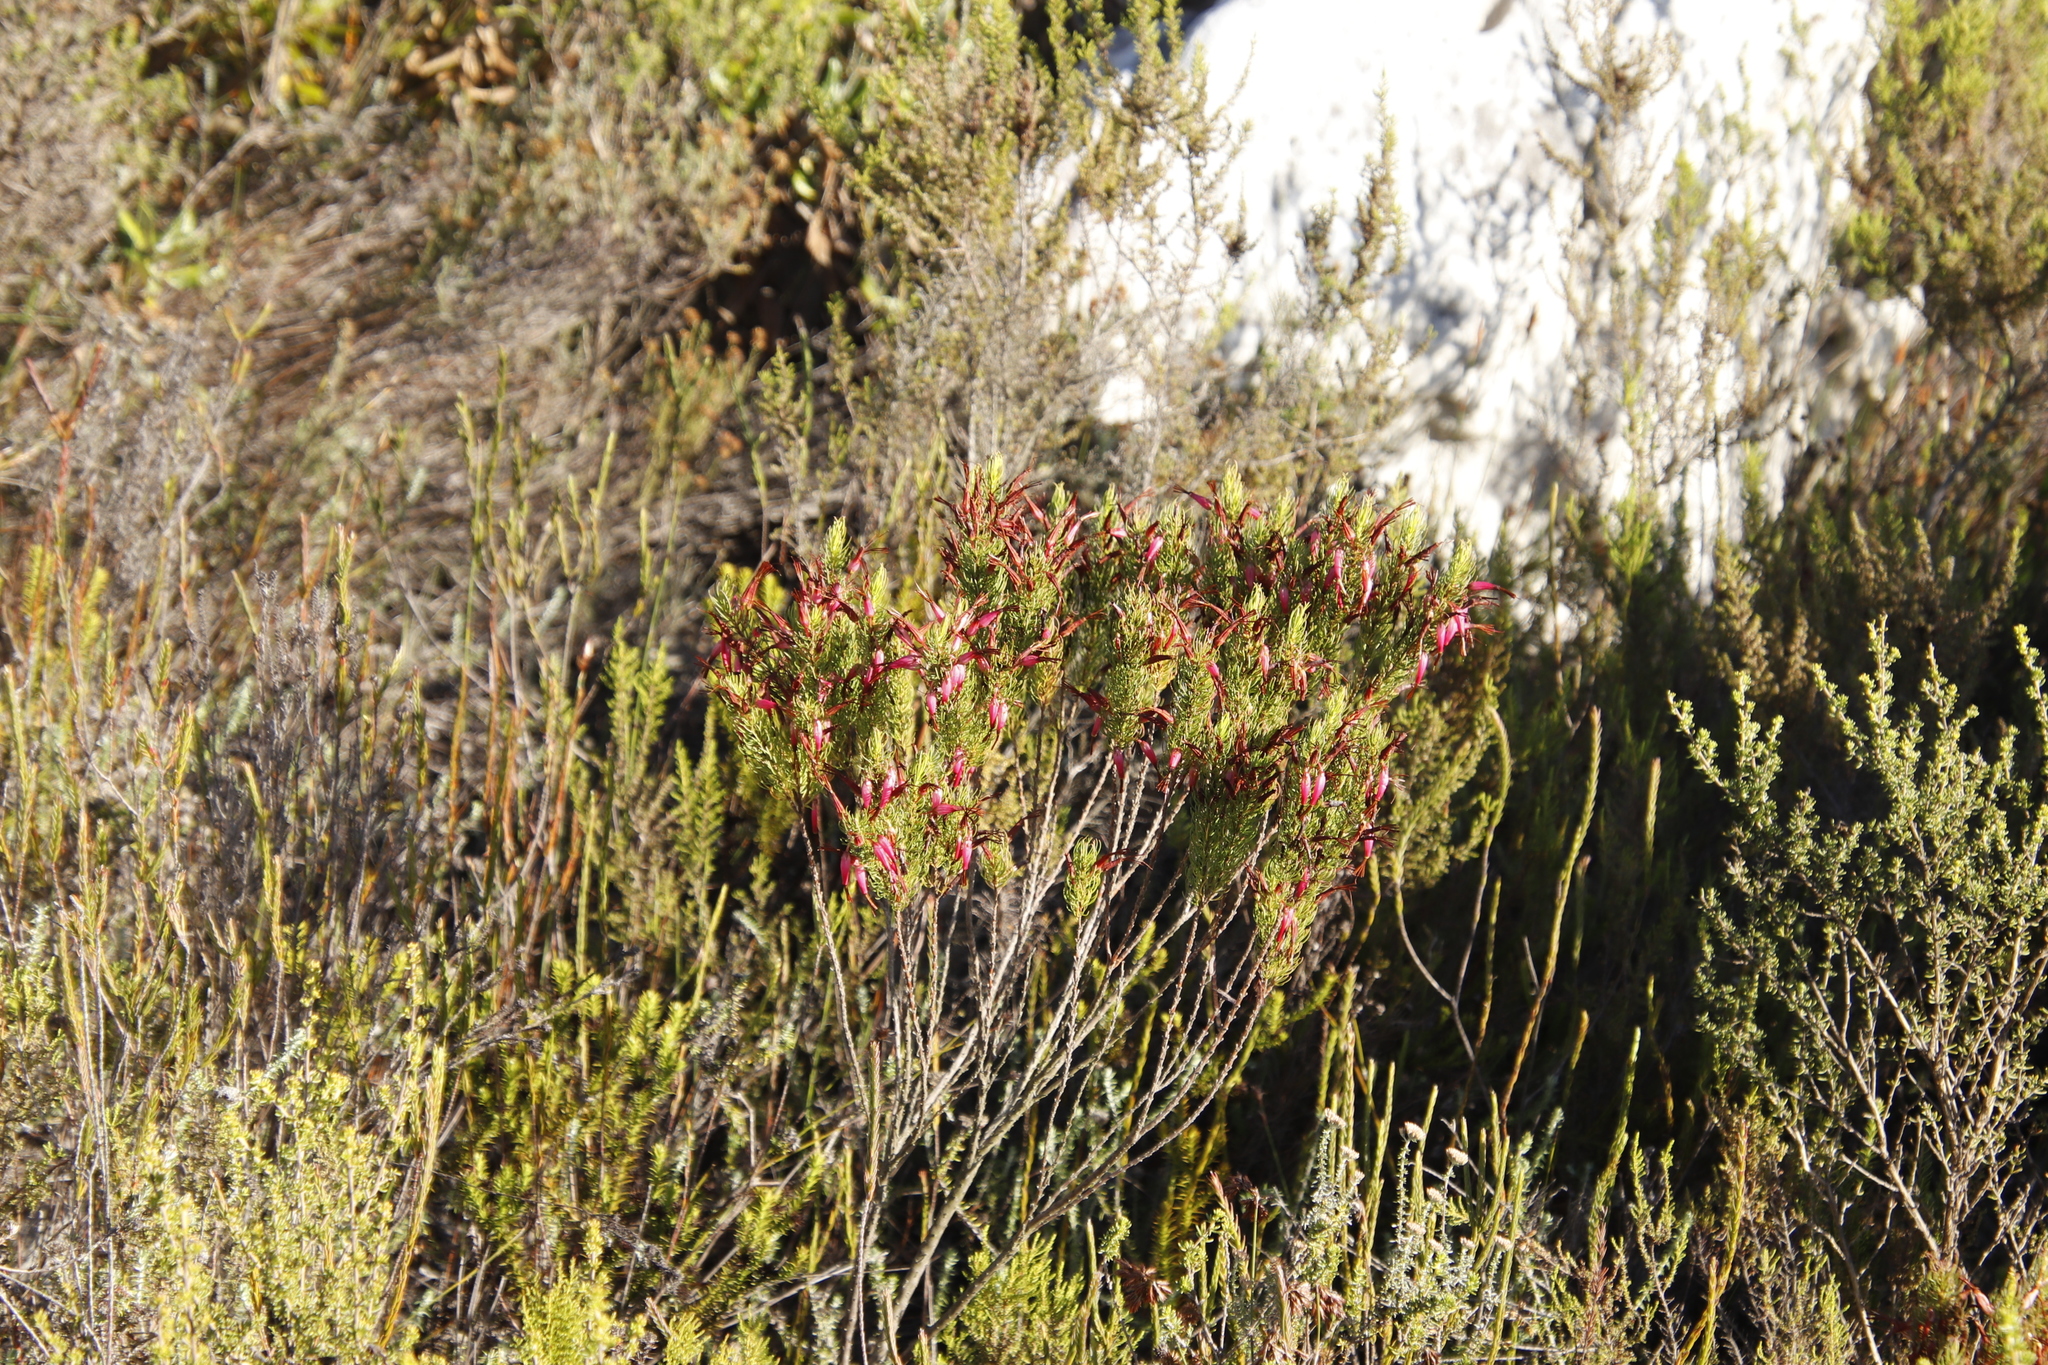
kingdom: Plantae
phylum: Tracheophyta
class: Magnoliopsida
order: Ericales
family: Ericaceae
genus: Erica
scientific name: Erica plukenetii
